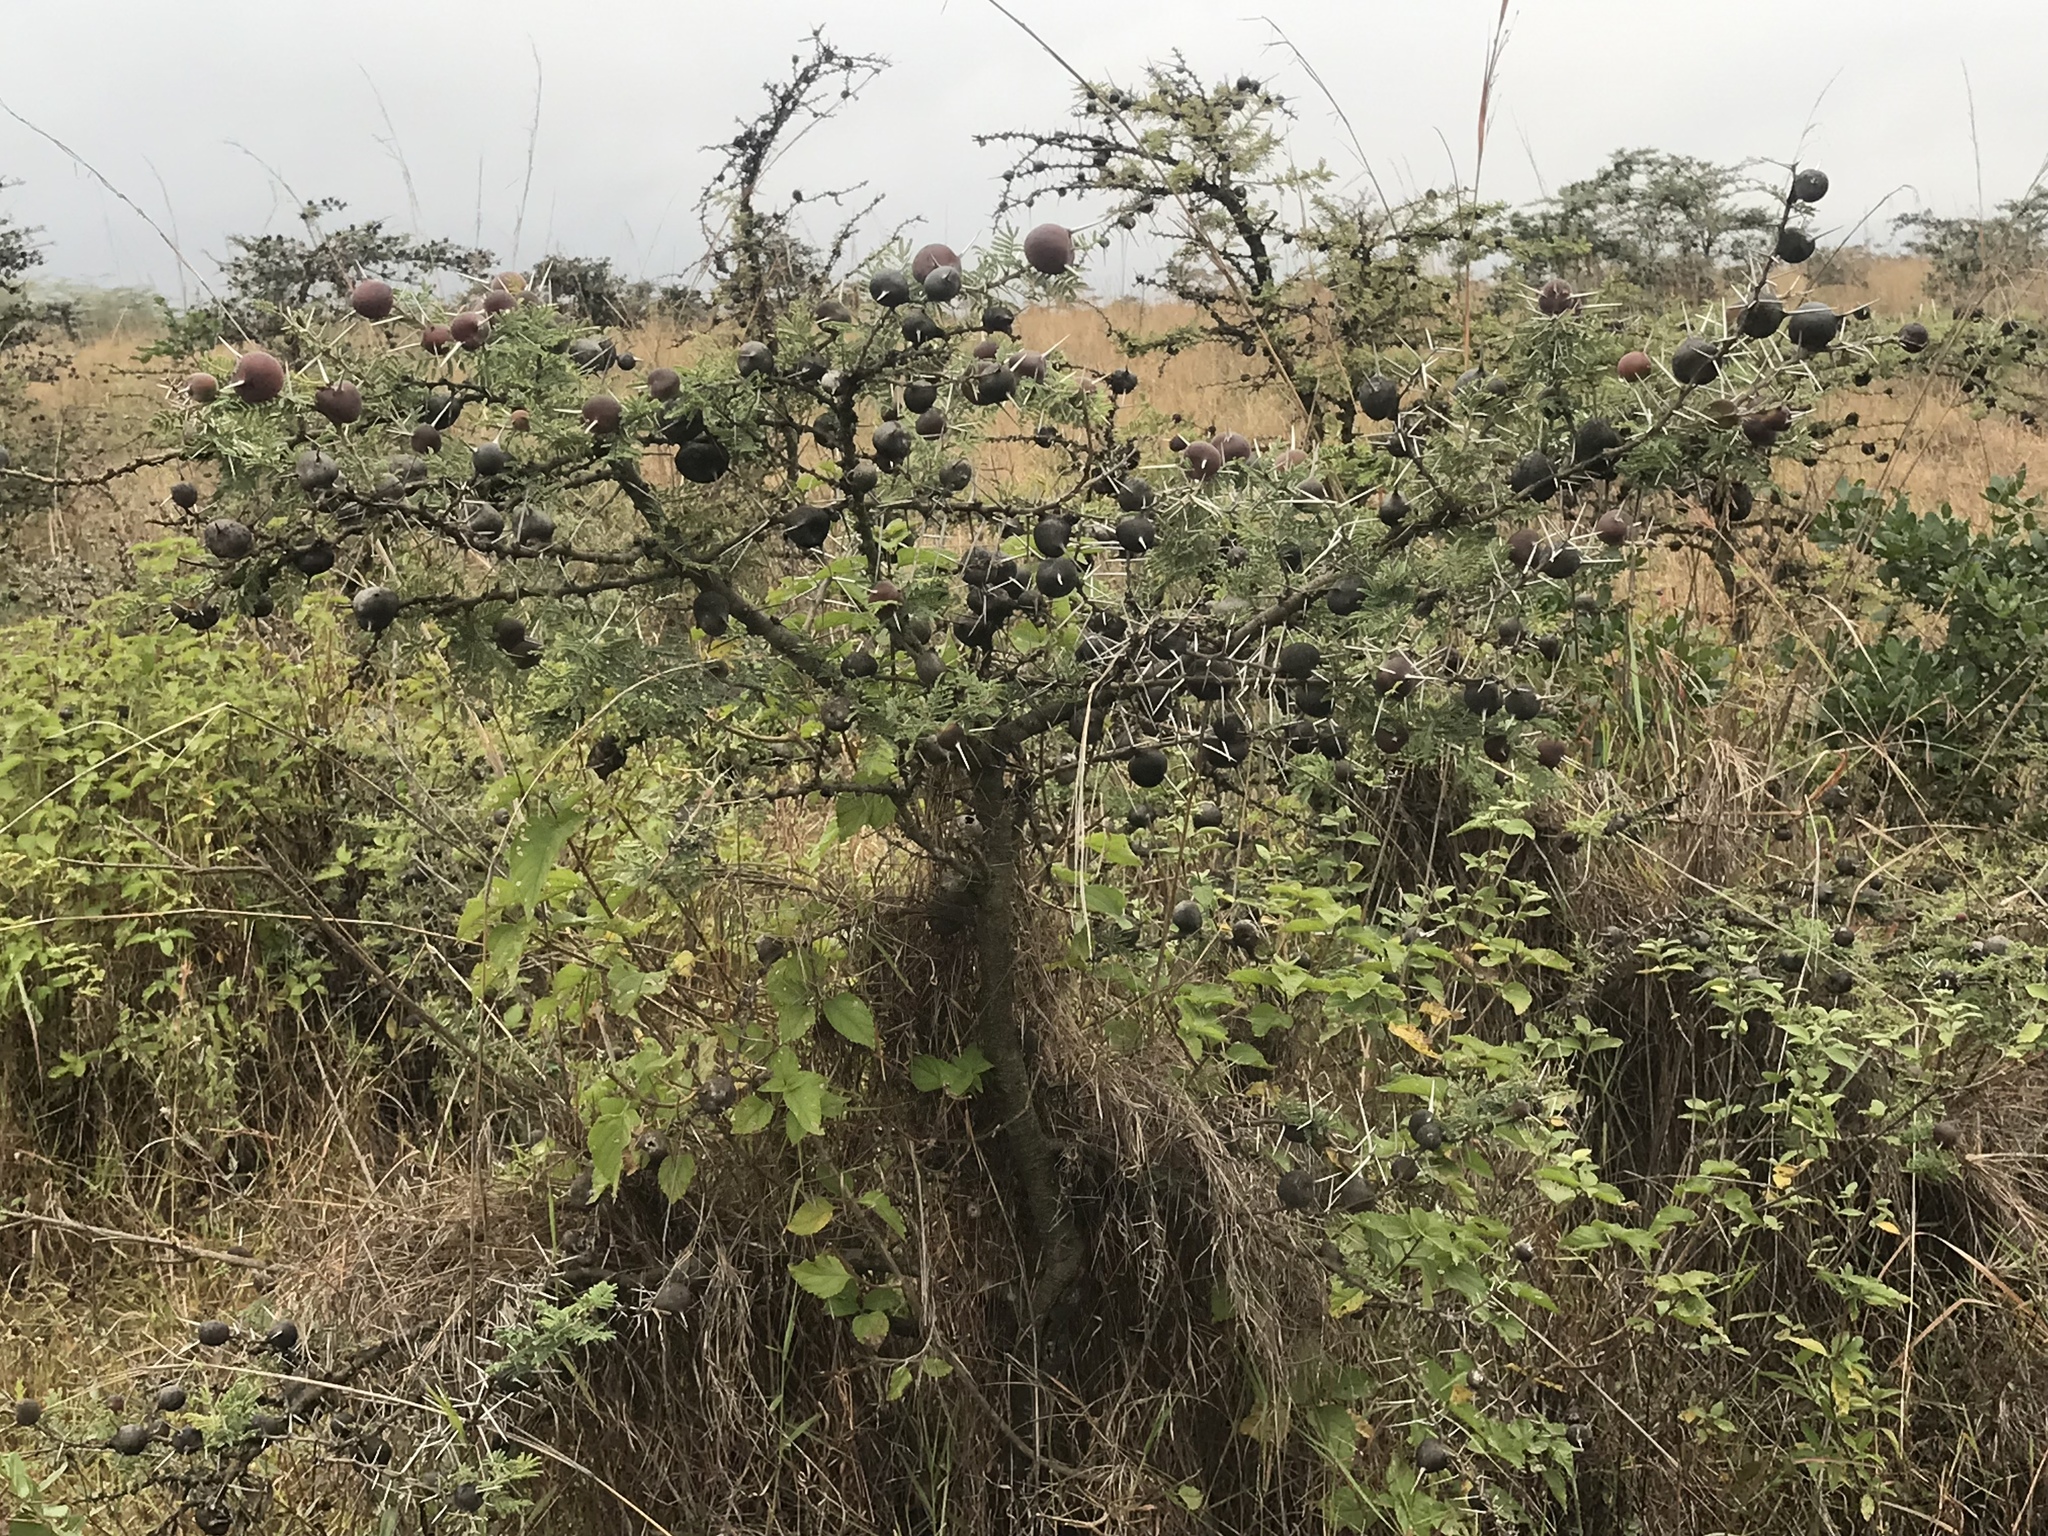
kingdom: Plantae
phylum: Tracheophyta
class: Magnoliopsida
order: Fabales
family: Fabaceae
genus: Vachellia
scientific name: Vachellia drepanolobium
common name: Whistling thorn
